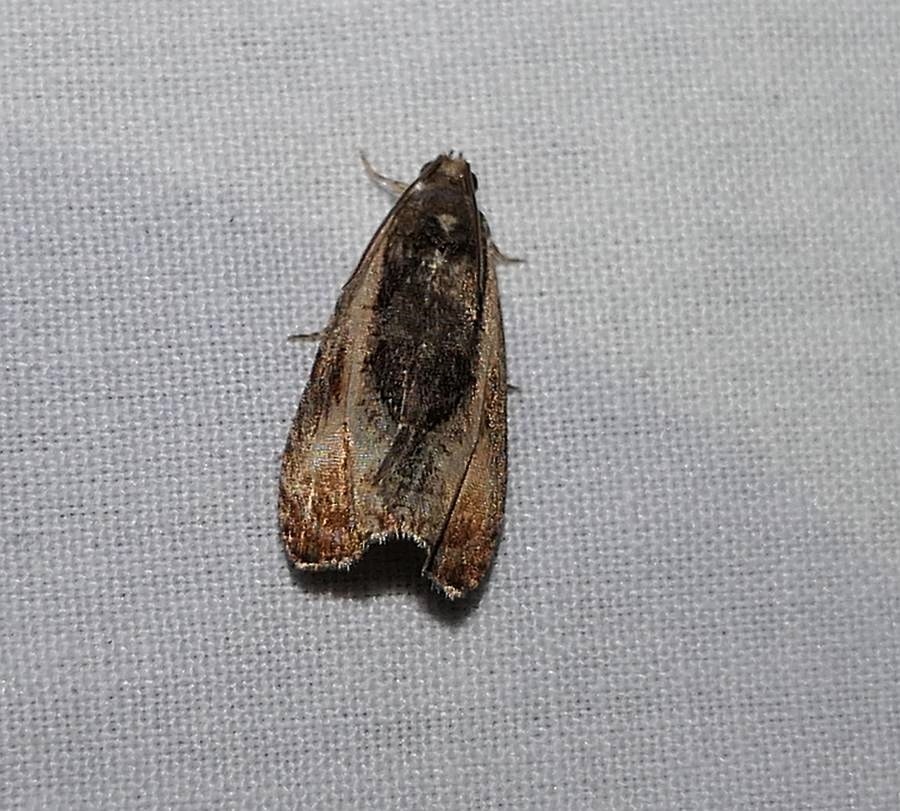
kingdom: Animalia
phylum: Arthropoda
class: Insecta
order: Lepidoptera
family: Tortricidae
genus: Olethreutes
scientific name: Olethreutes nigranum
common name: Variable nigranum moth
